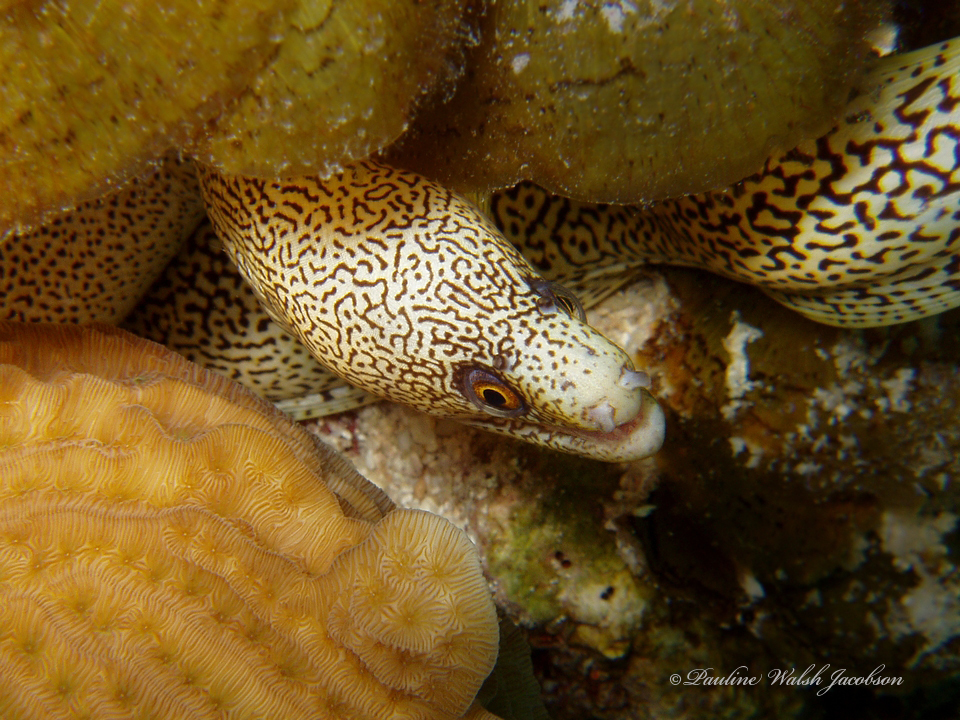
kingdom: Animalia
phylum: Chordata
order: Anguilliformes
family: Muraenidae
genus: Gymnothorax
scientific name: Gymnothorax miliaris
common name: Goldentail moray
